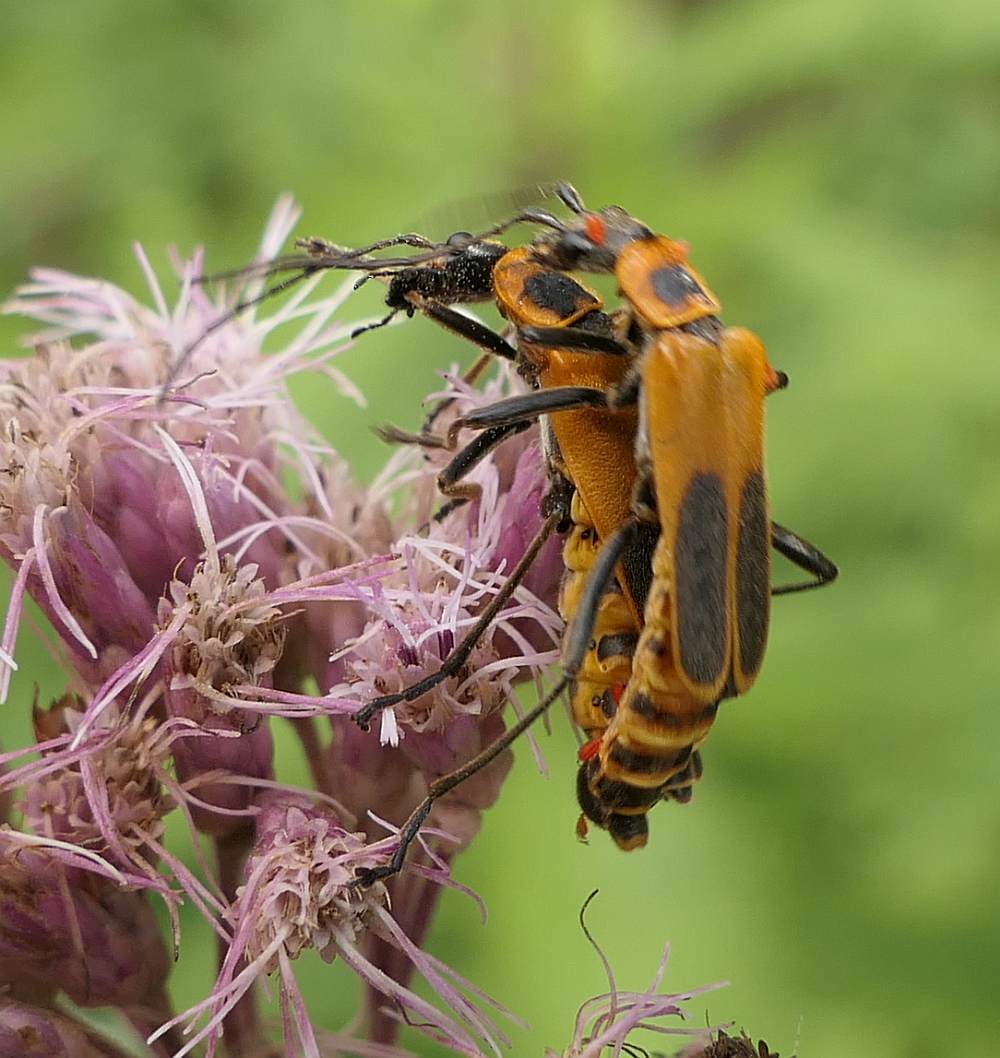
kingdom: Animalia
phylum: Arthropoda
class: Insecta
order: Coleoptera
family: Cantharidae
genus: Chauliognathus
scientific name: Chauliognathus pensylvanicus
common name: Goldenrod soldier beetle
